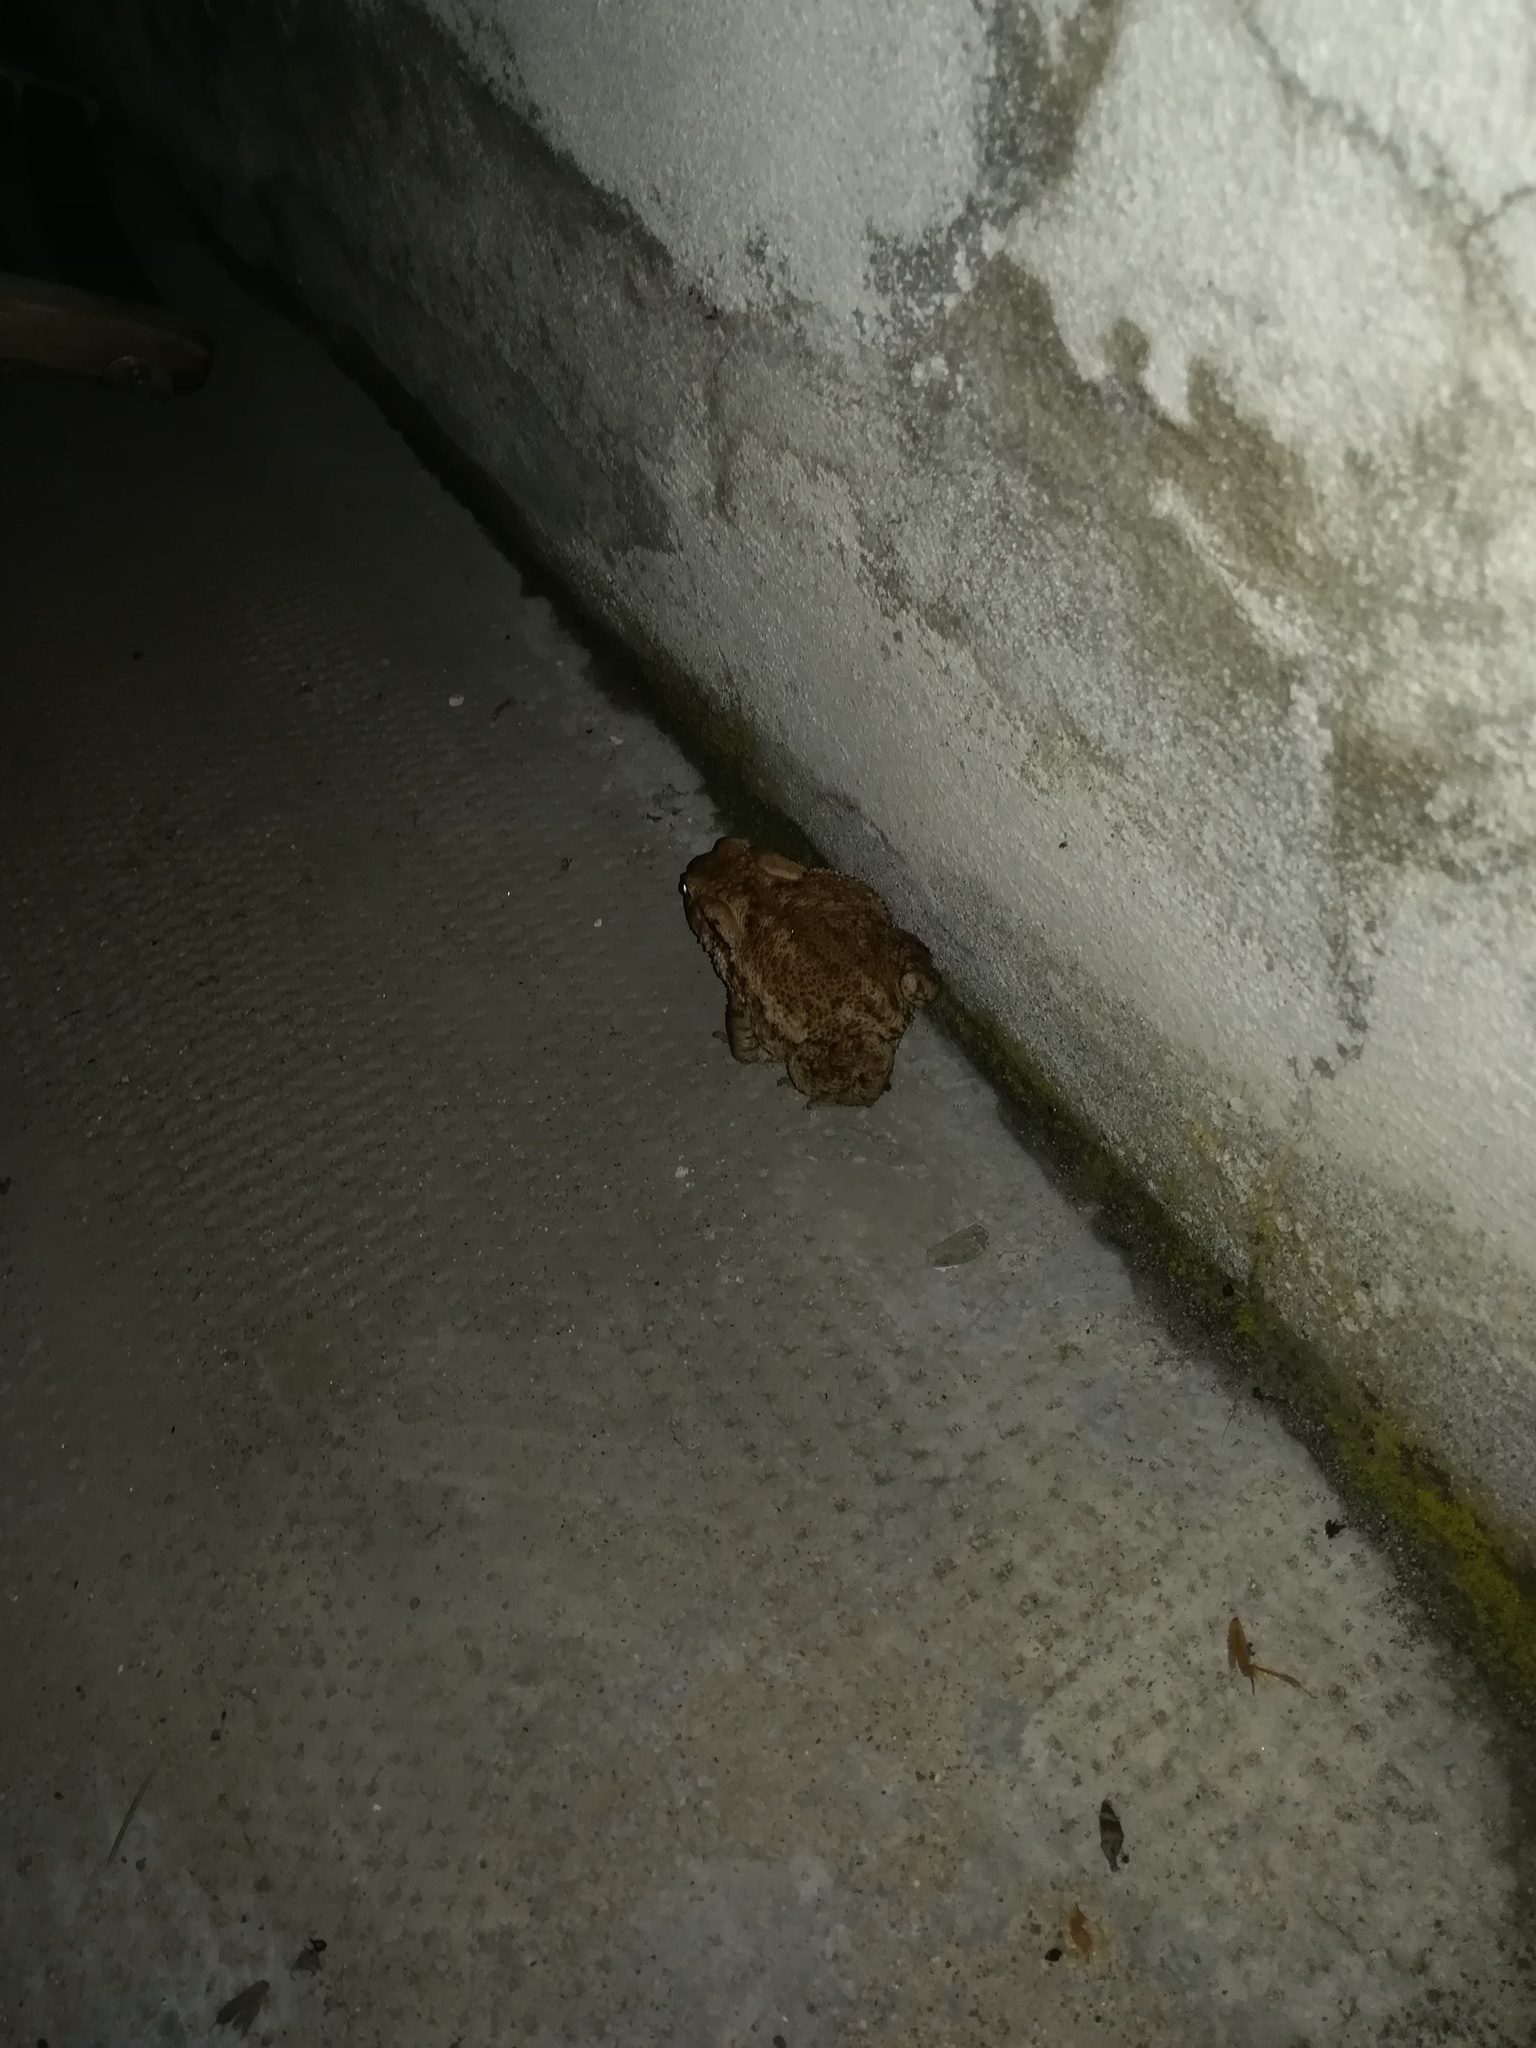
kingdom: Animalia
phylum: Chordata
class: Amphibia
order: Anura
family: Bufonidae
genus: Bufo
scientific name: Bufo bufo
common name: Common toad
